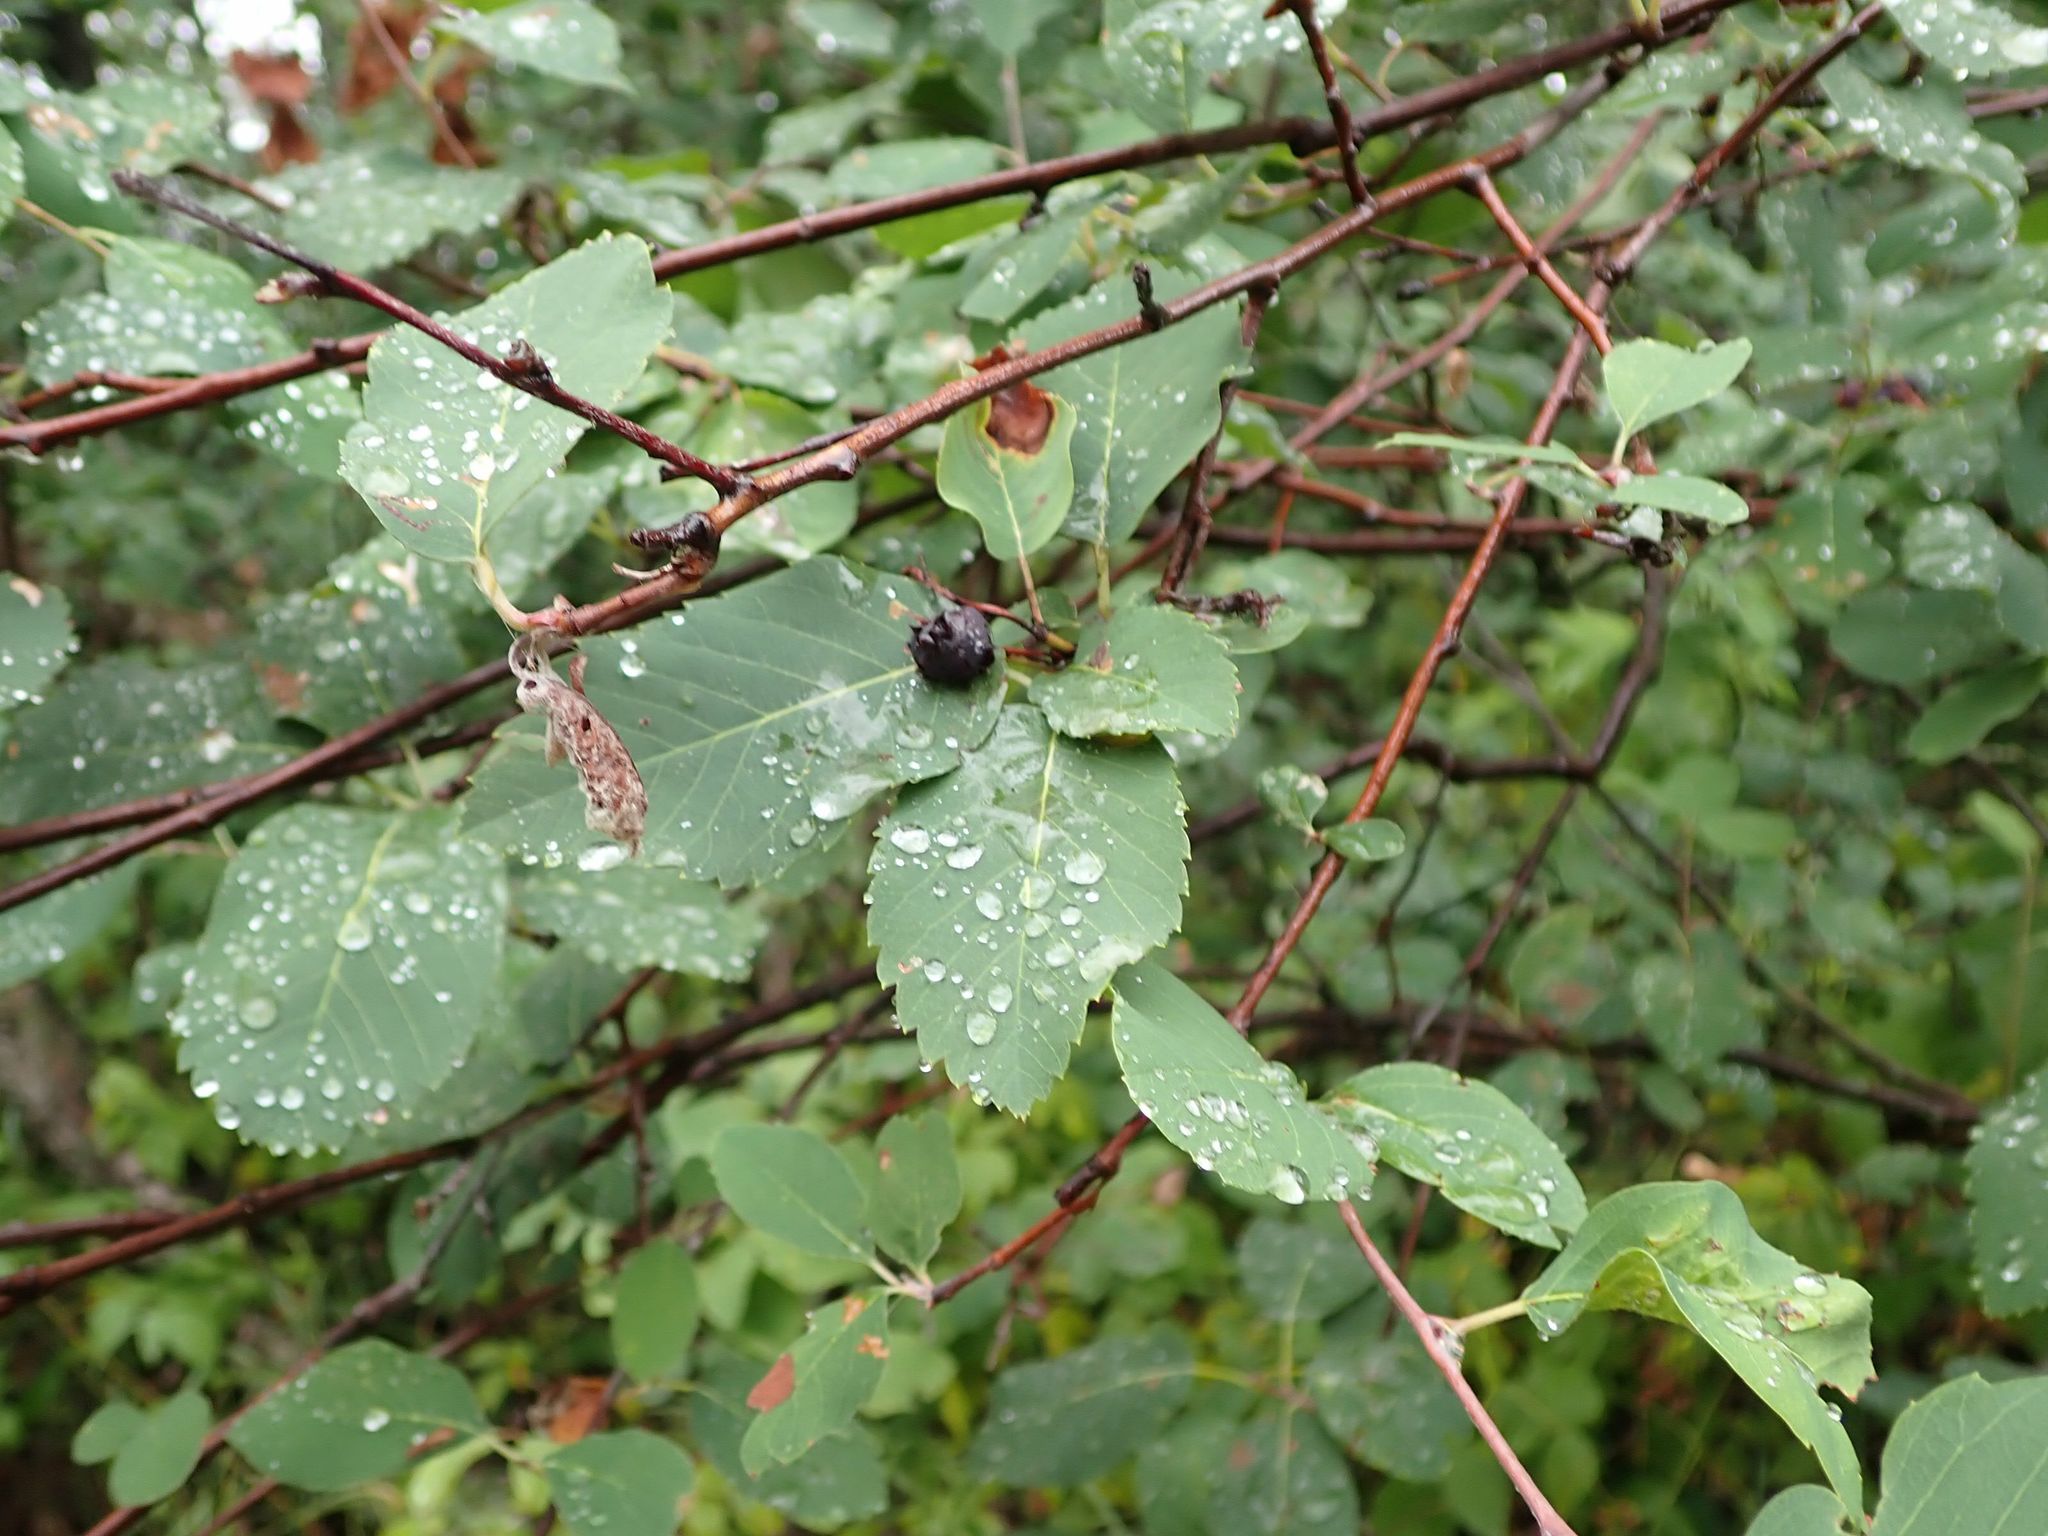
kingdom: Plantae
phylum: Tracheophyta
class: Magnoliopsida
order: Rosales
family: Rosaceae
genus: Amelanchier
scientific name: Amelanchier alnifolia
